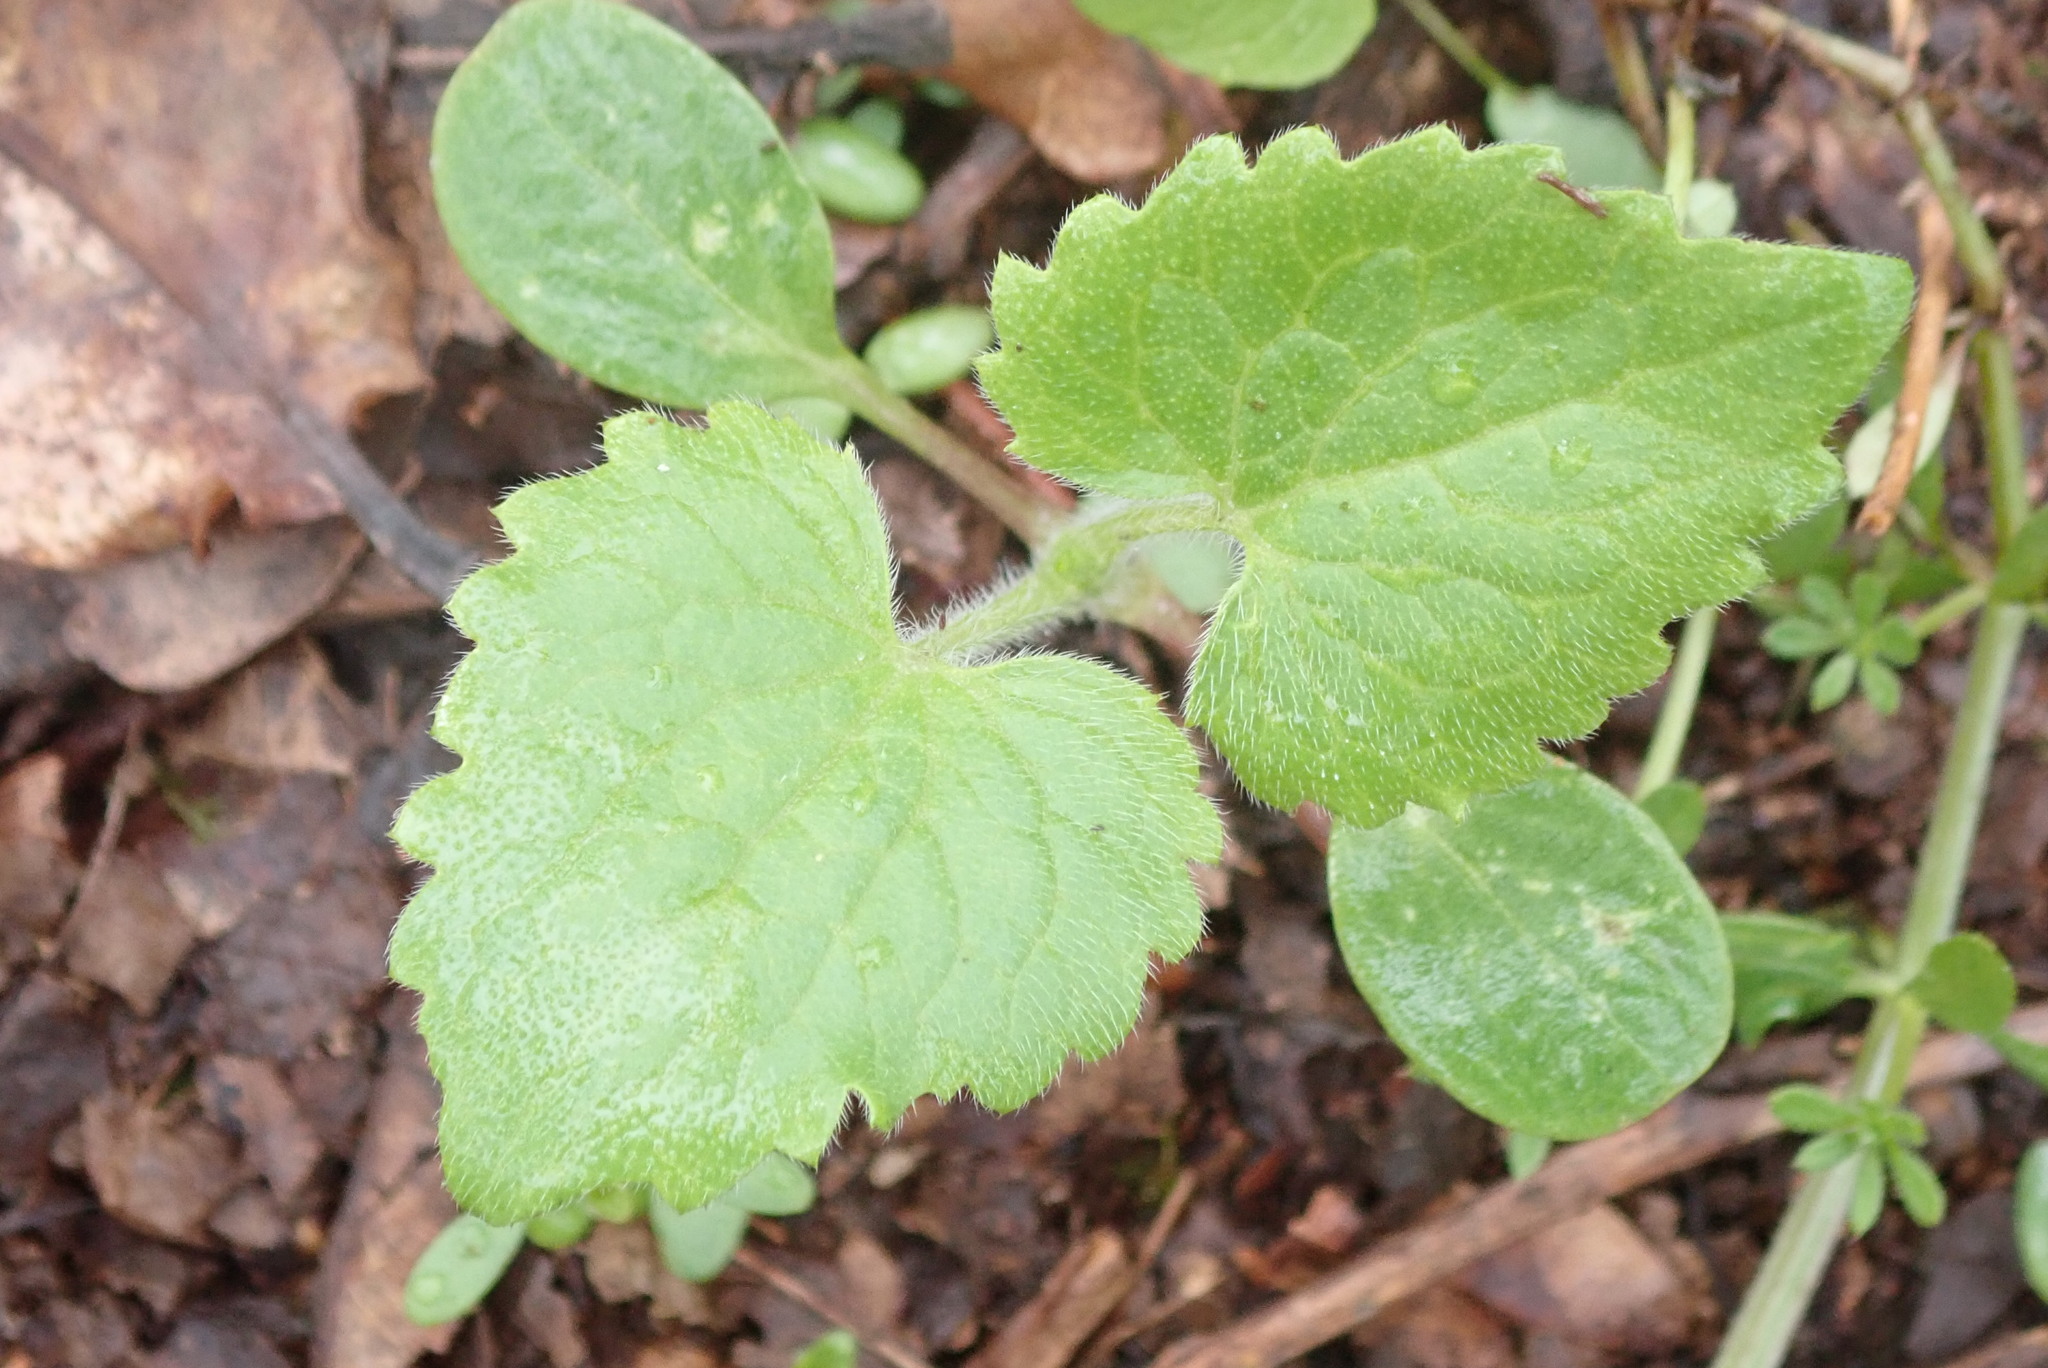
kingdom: Plantae
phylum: Tracheophyta
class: Magnoliopsida
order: Brassicales
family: Brassicaceae
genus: Lunaria
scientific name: Lunaria annua
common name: Honesty
